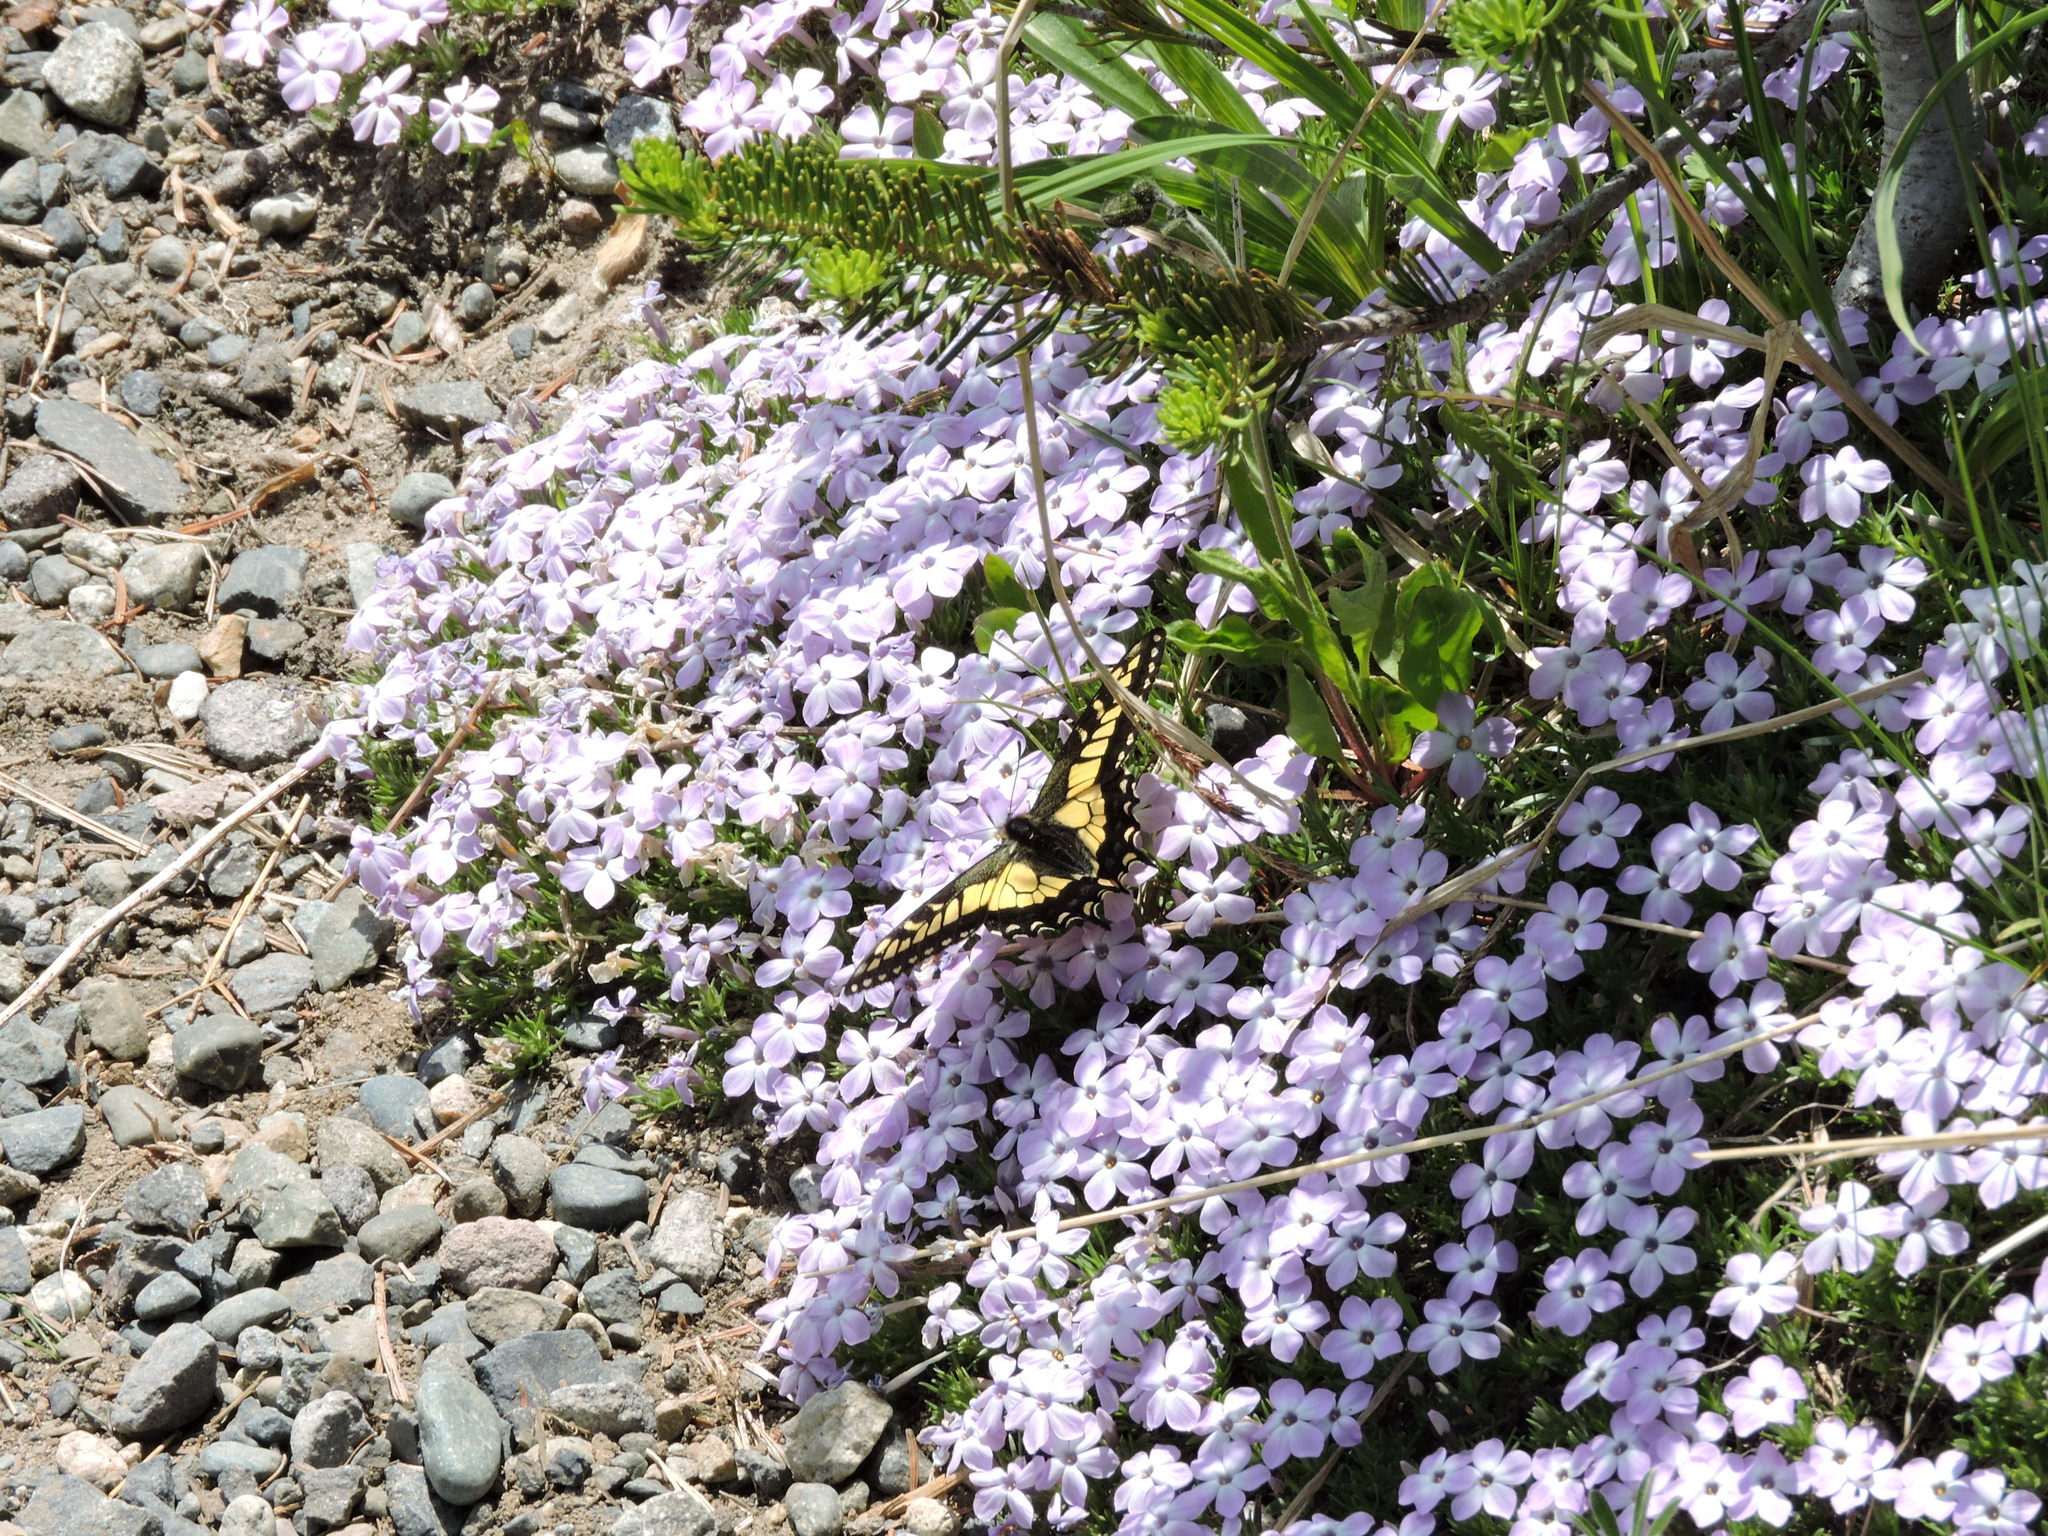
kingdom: Plantae
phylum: Tracheophyta
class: Magnoliopsida
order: Ericales
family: Polemoniaceae
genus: Phlox
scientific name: Phlox diffusa
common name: Mat phlox
